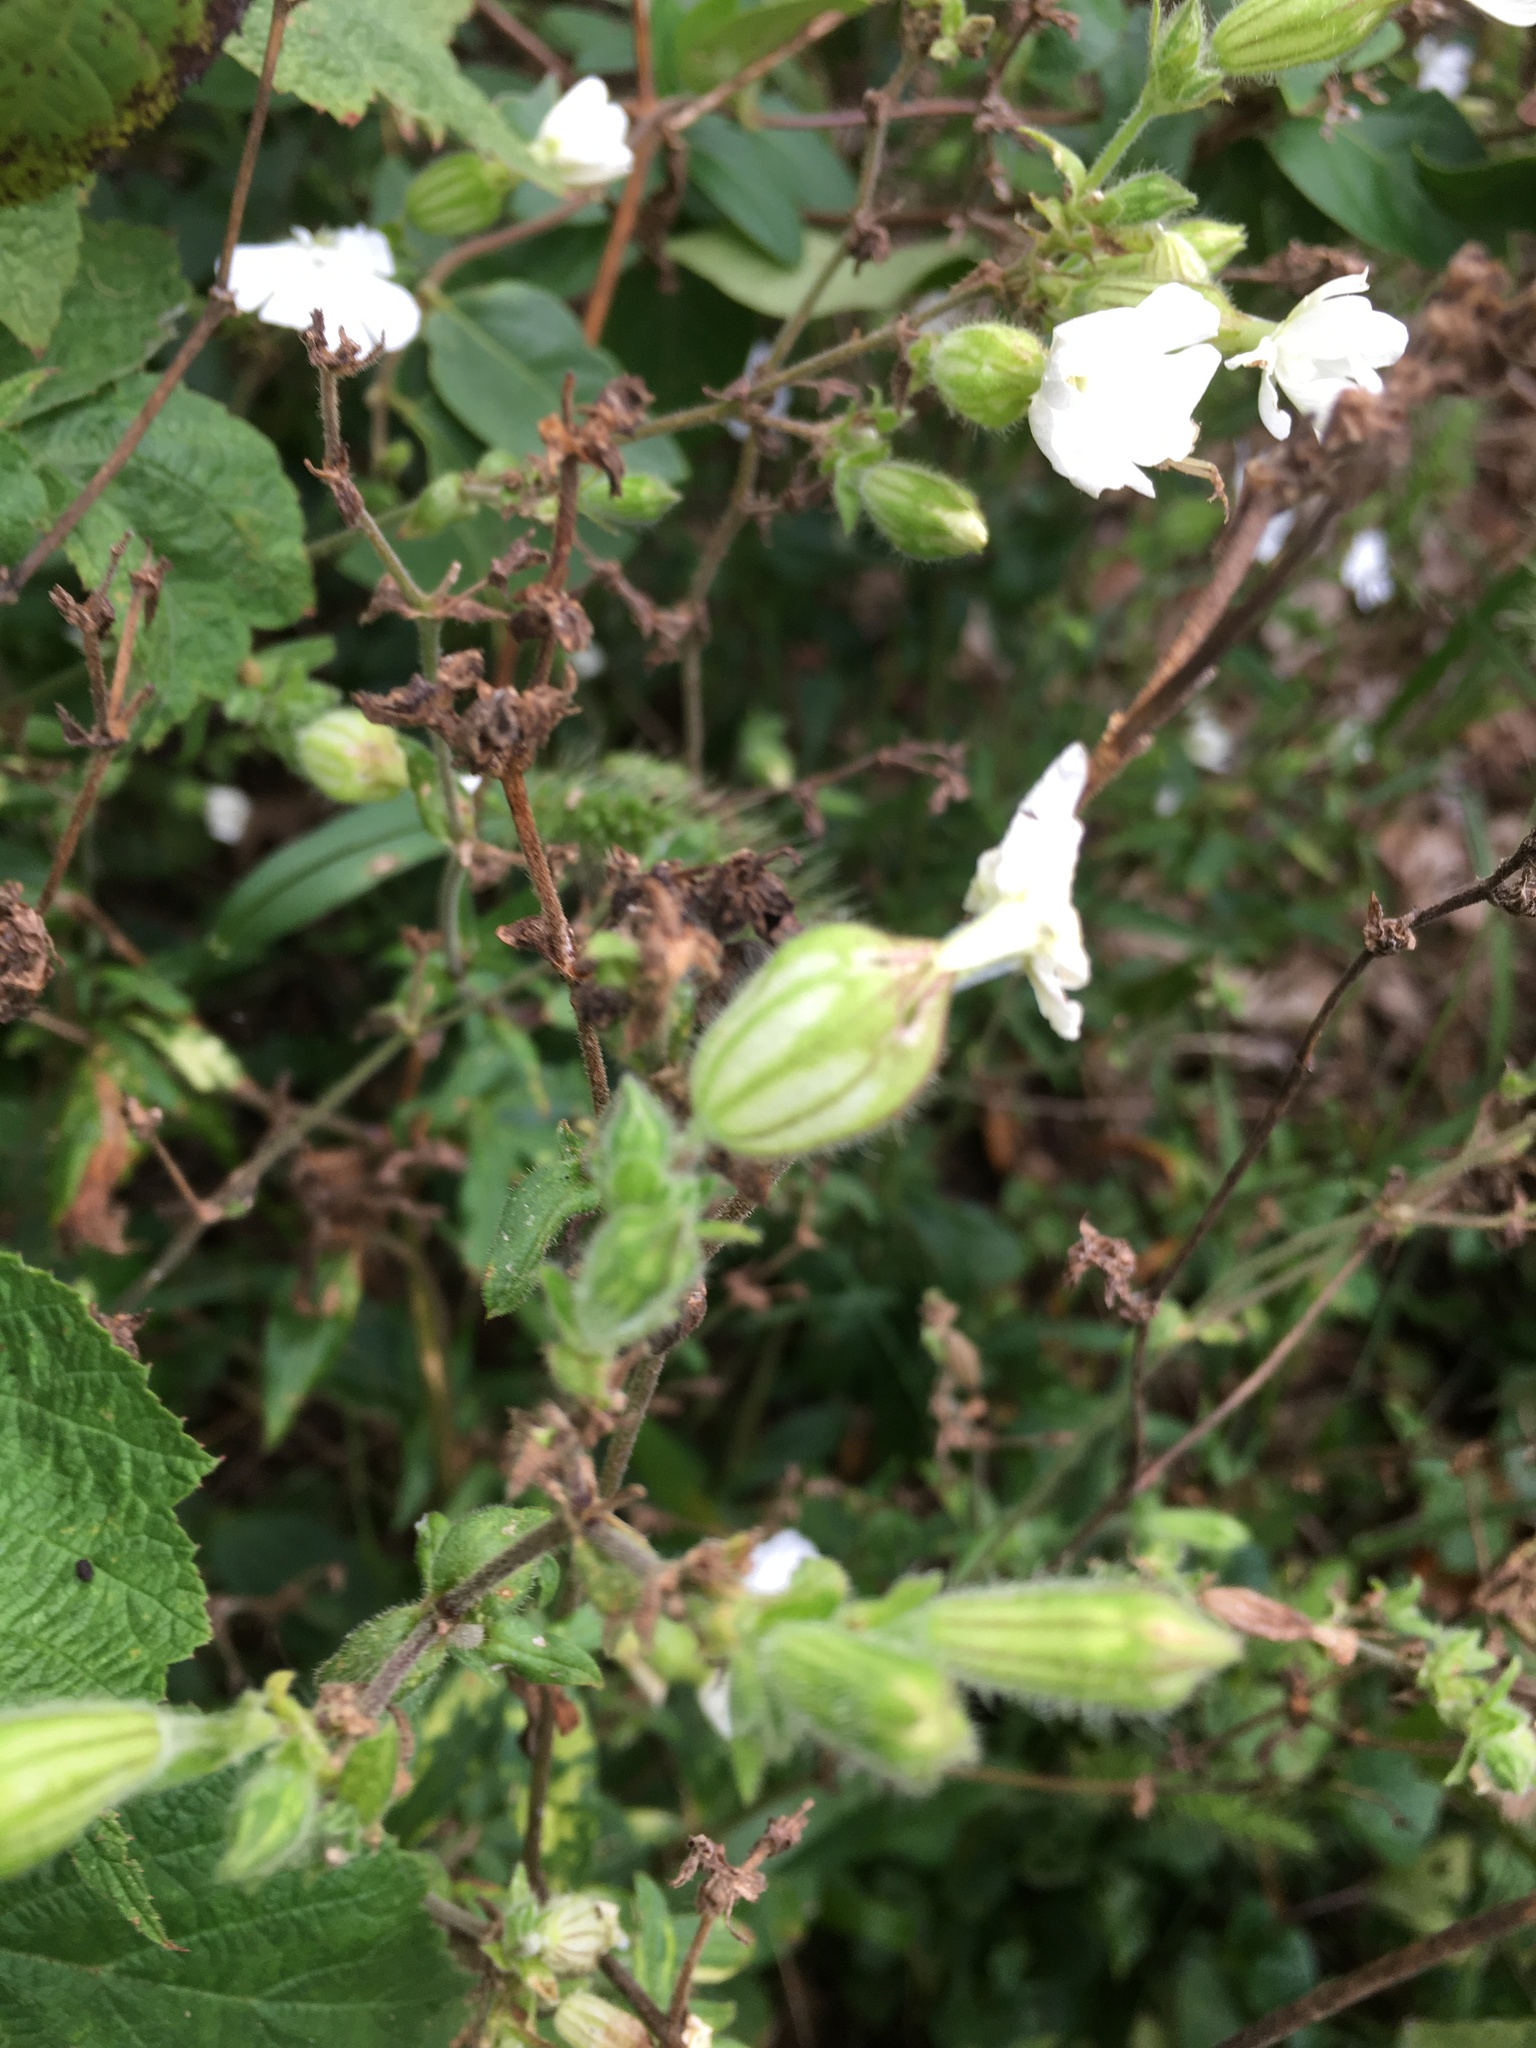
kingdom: Plantae
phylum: Tracheophyta
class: Magnoliopsida
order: Caryophyllales
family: Caryophyllaceae
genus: Silene
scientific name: Silene latifolia
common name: White campion
